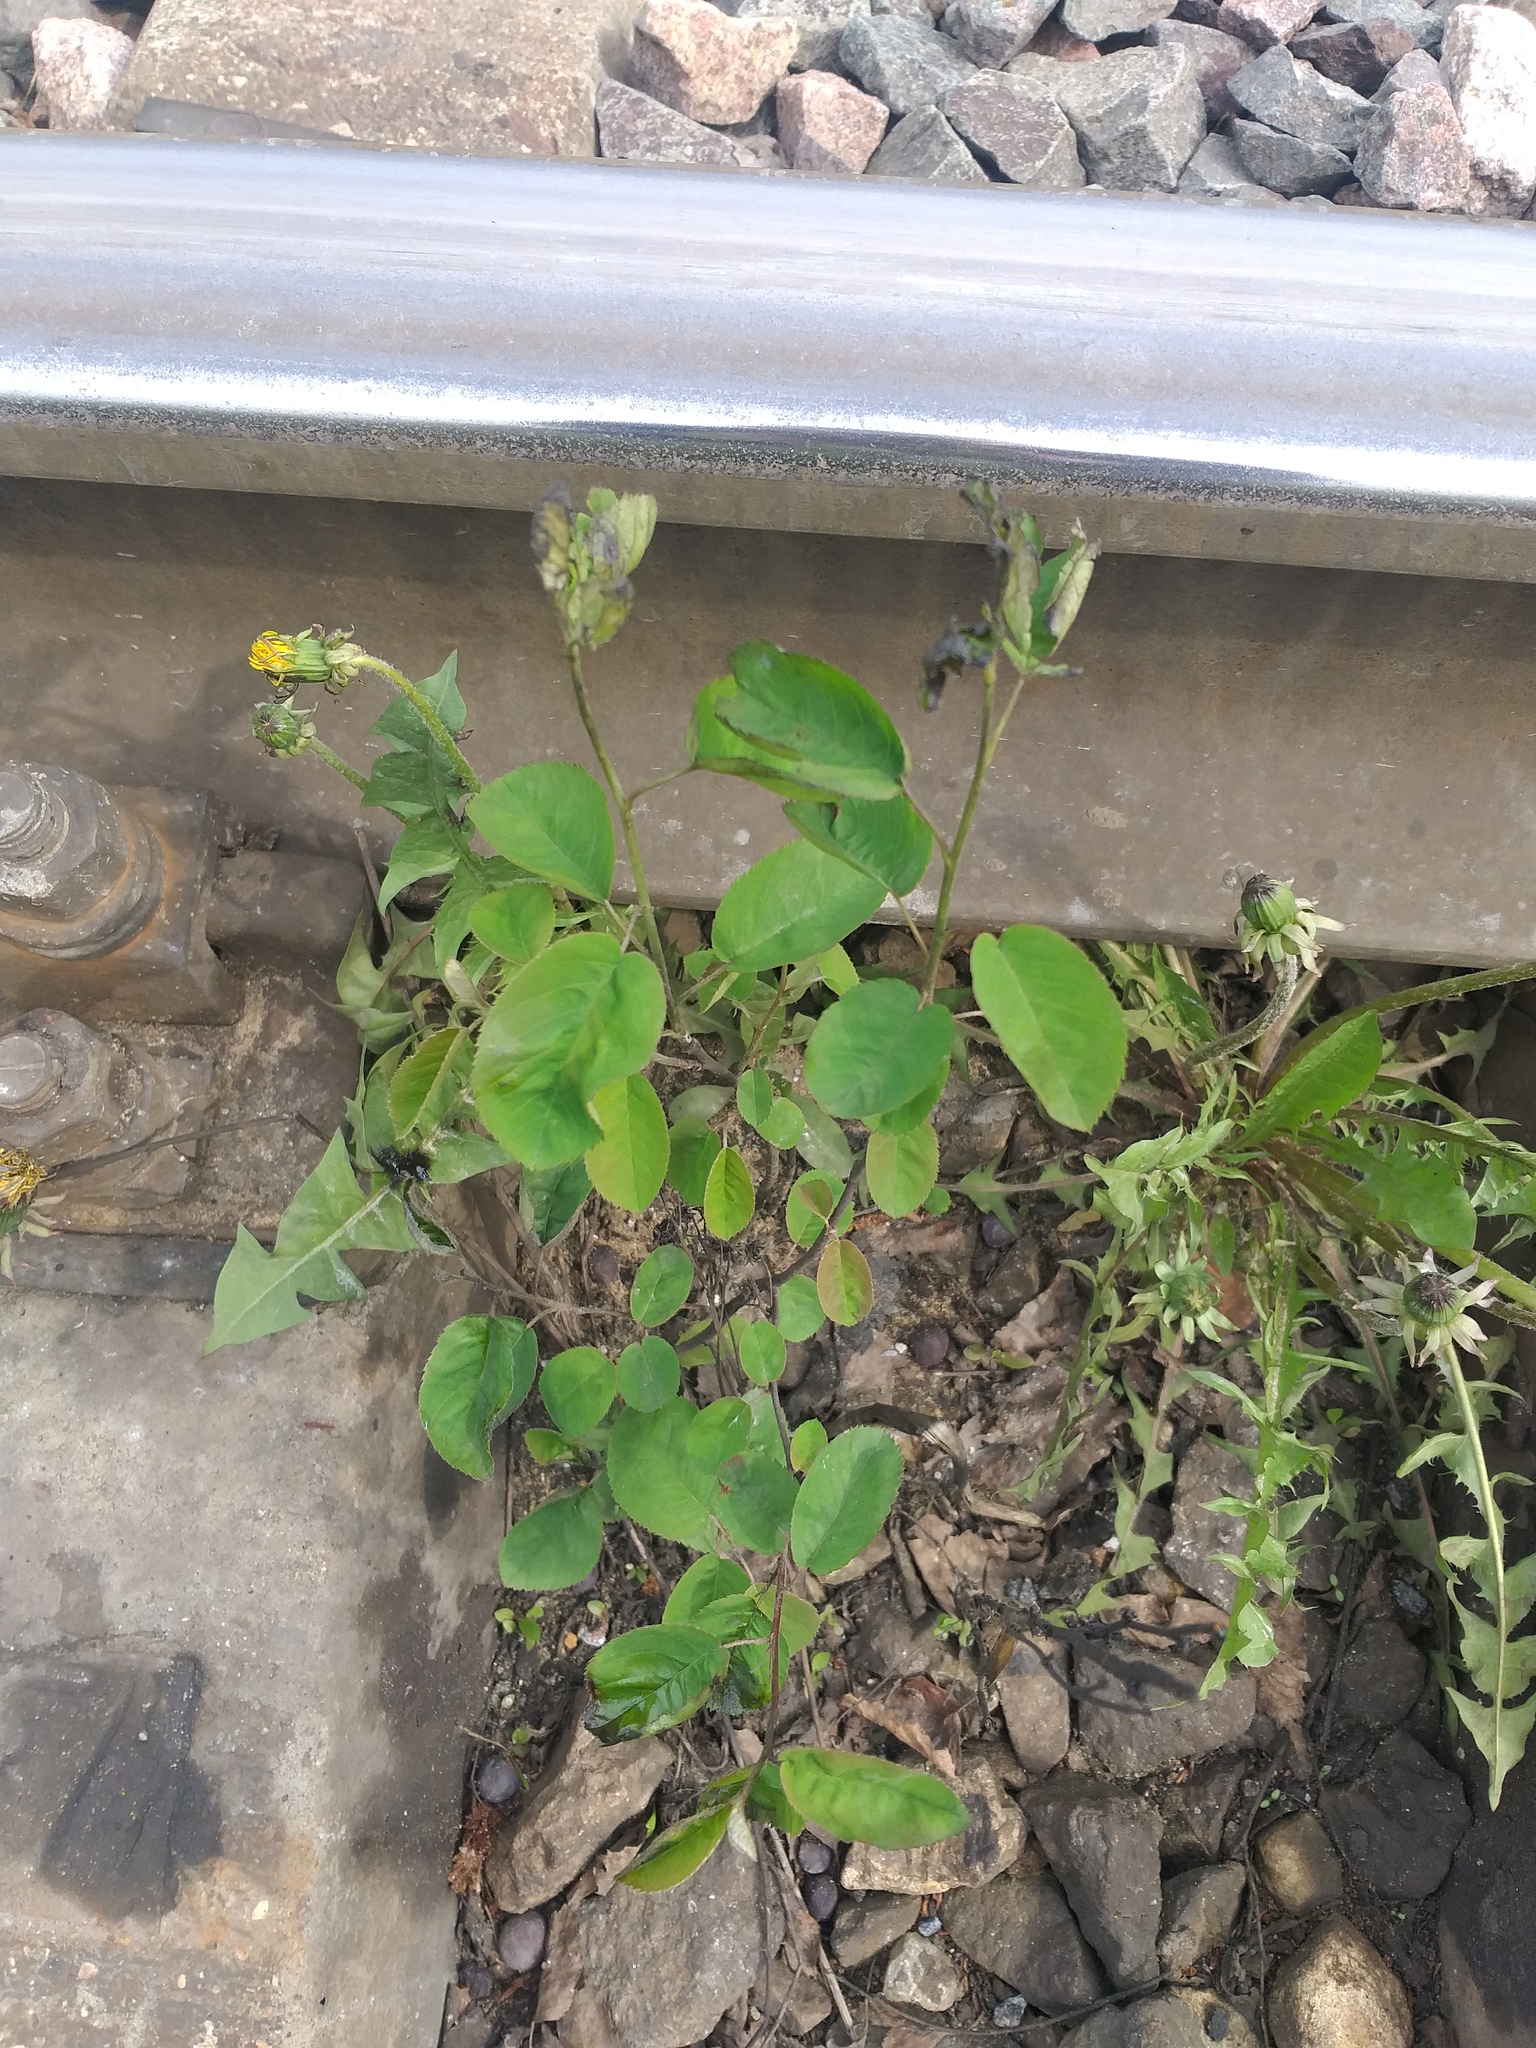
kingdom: Plantae
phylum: Tracheophyta
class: Magnoliopsida
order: Rosales
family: Rosaceae
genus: Amelanchier
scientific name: Amelanchier
